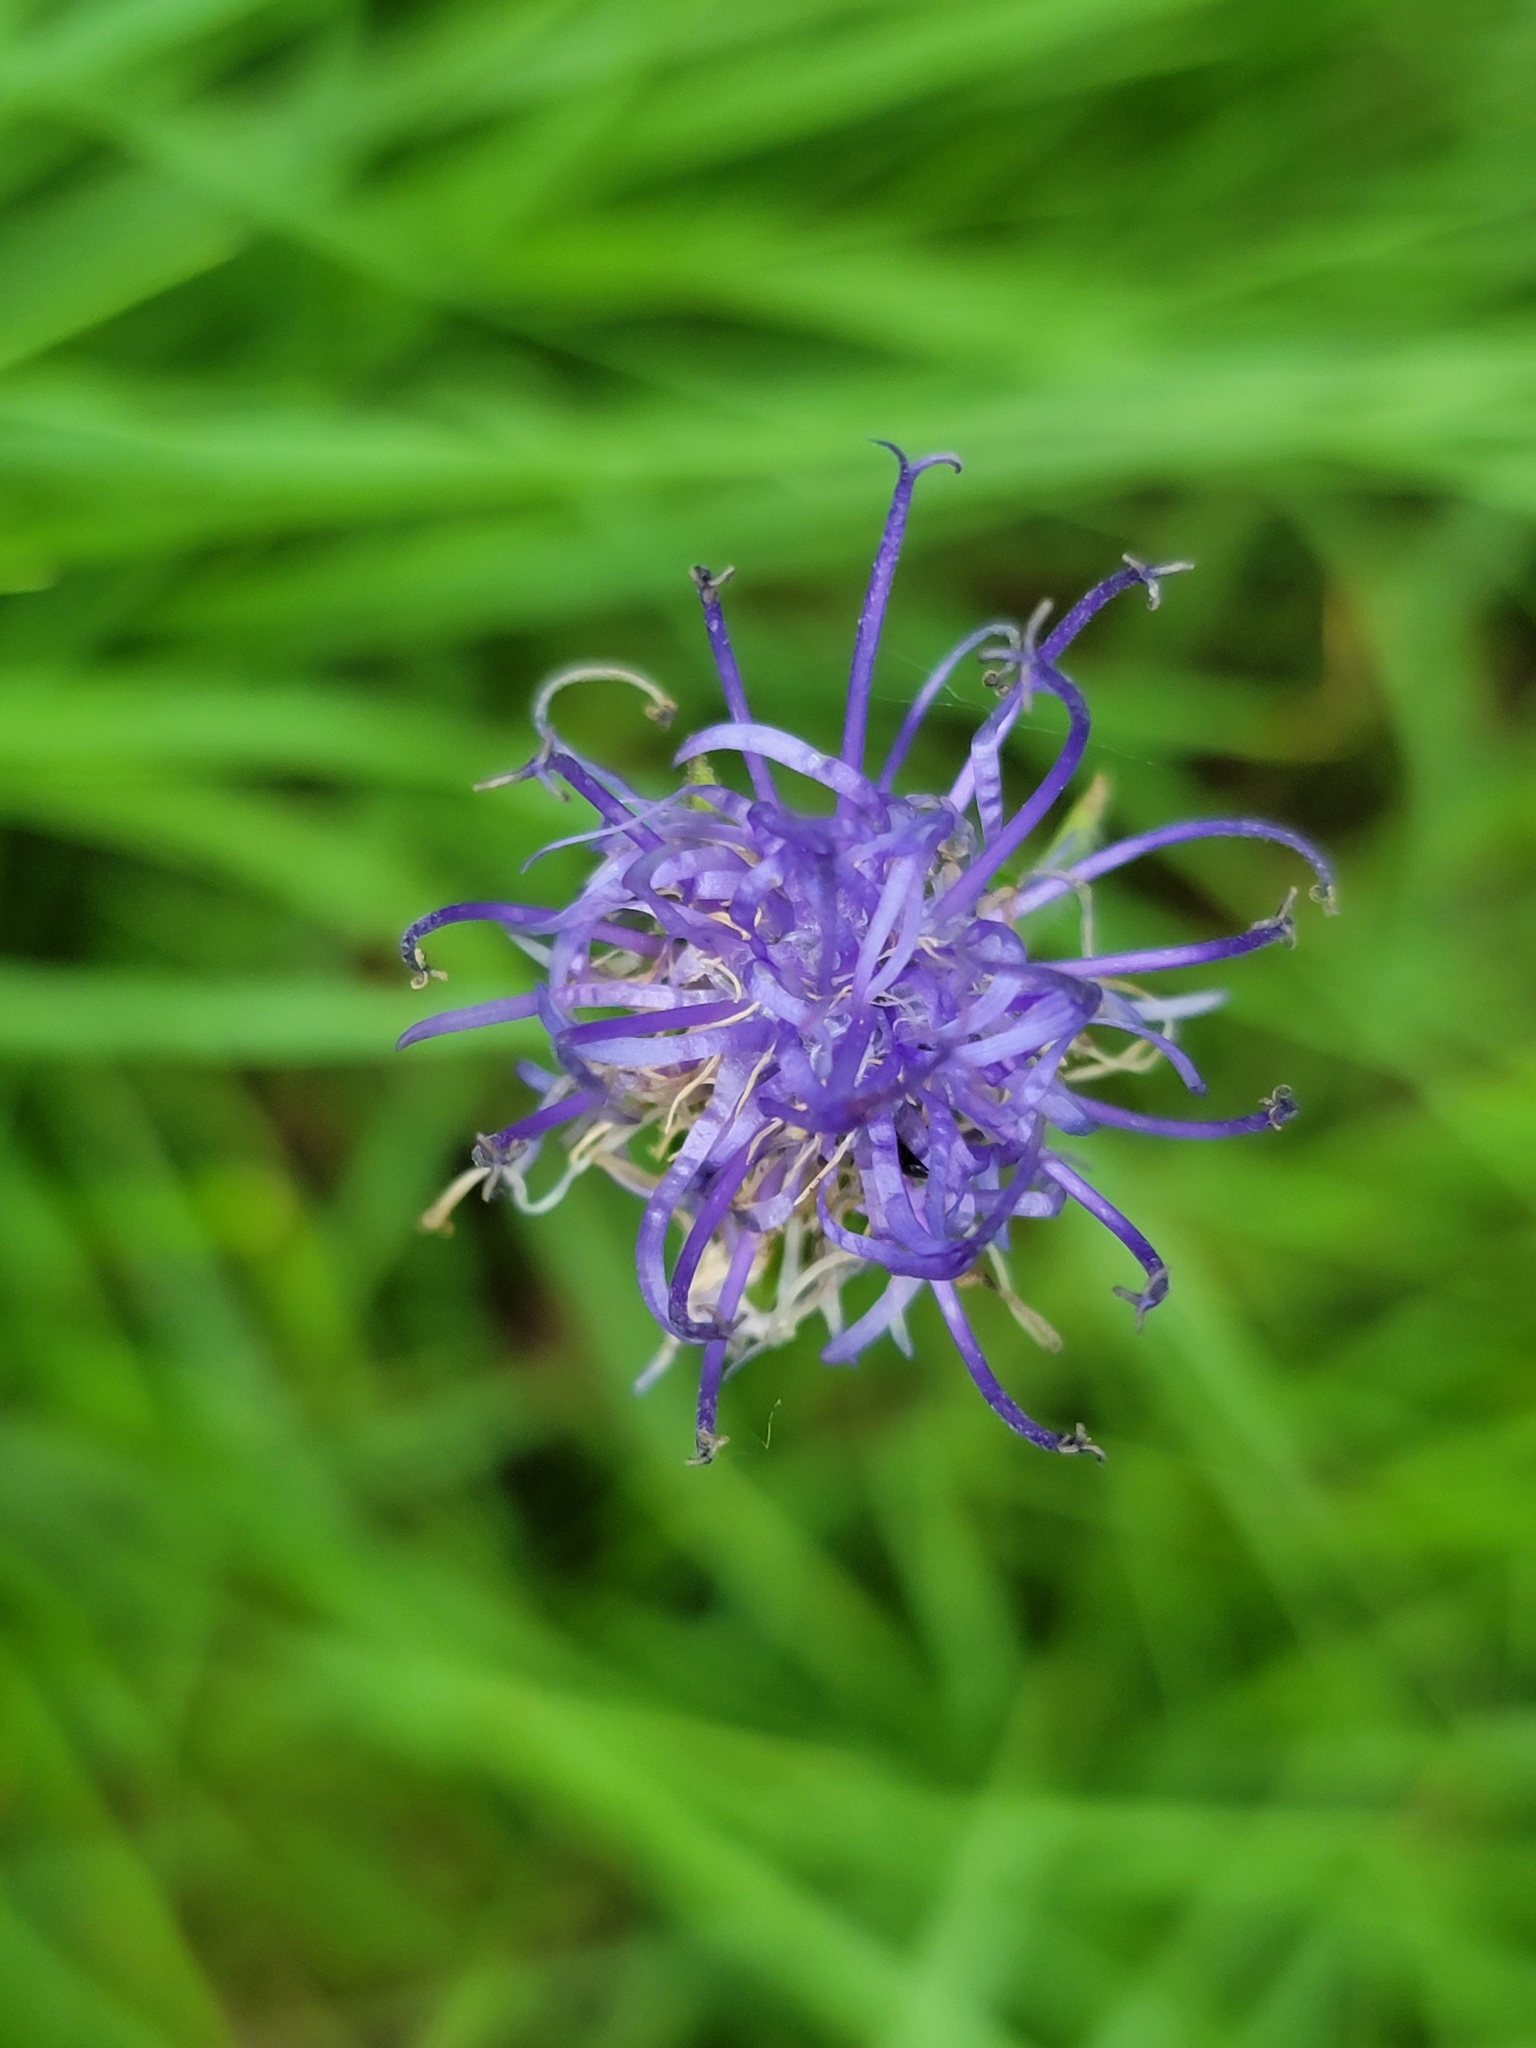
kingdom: Plantae
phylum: Tracheophyta
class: Magnoliopsida
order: Asterales
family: Campanulaceae
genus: Phyteuma
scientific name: Phyteuma orbiculare
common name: Round-headed rampion
